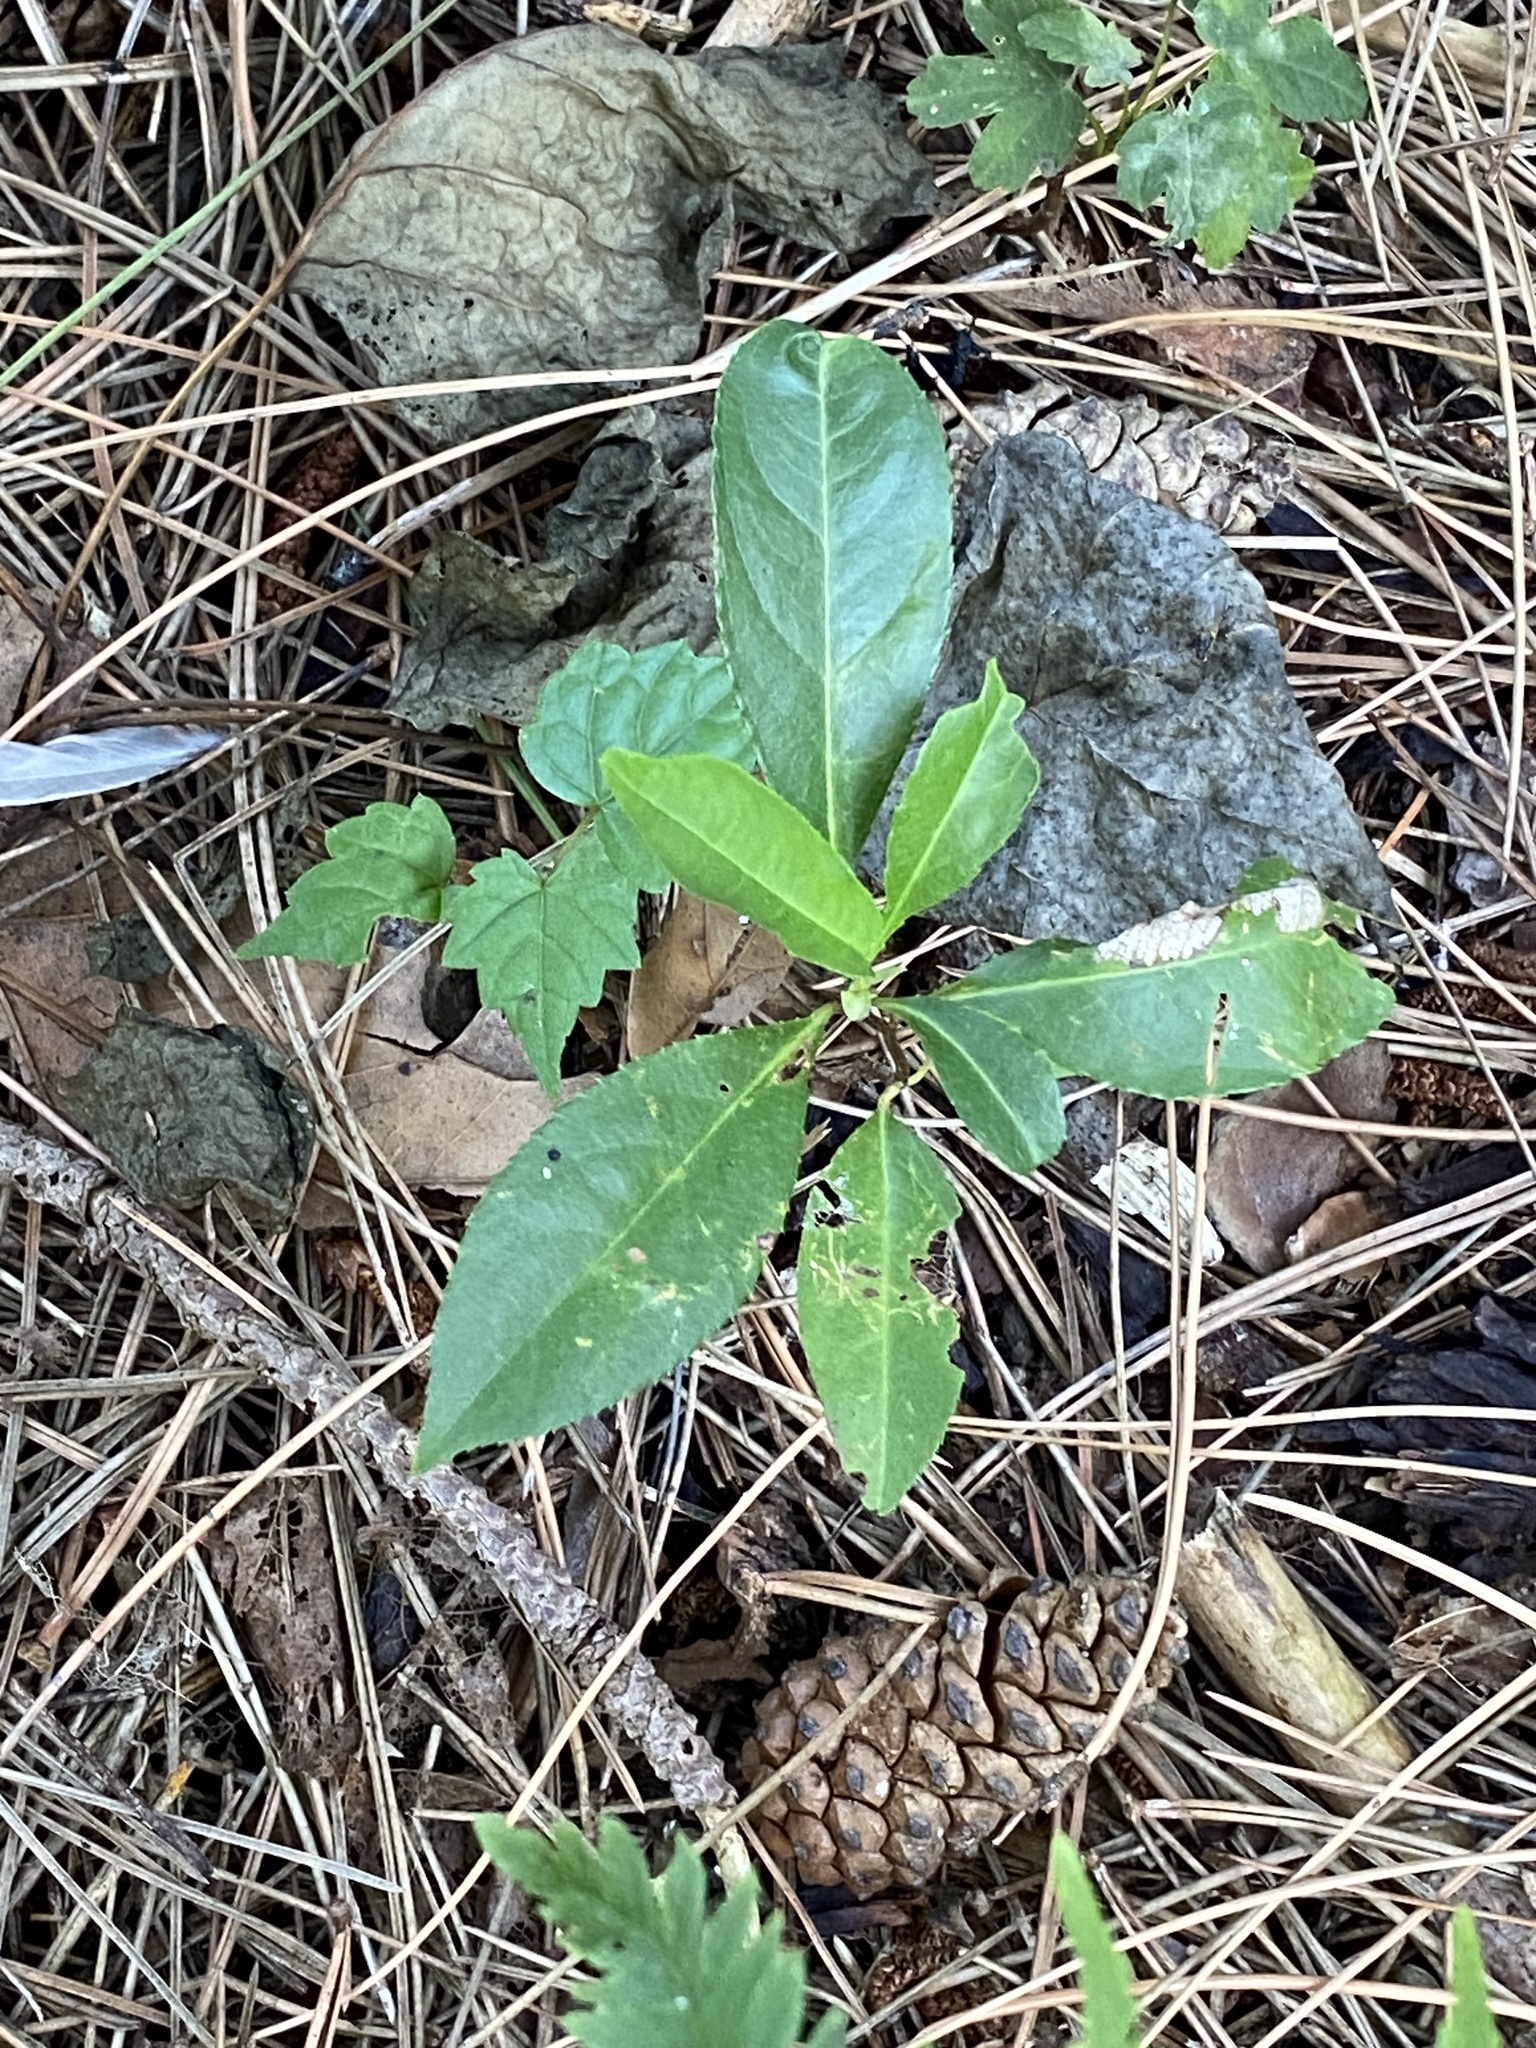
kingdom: Plantae
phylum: Tracheophyta
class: Magnoliopsida
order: Rosales
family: Rosaceae
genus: Prunus
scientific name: Prunus serotina
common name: Black cherry
